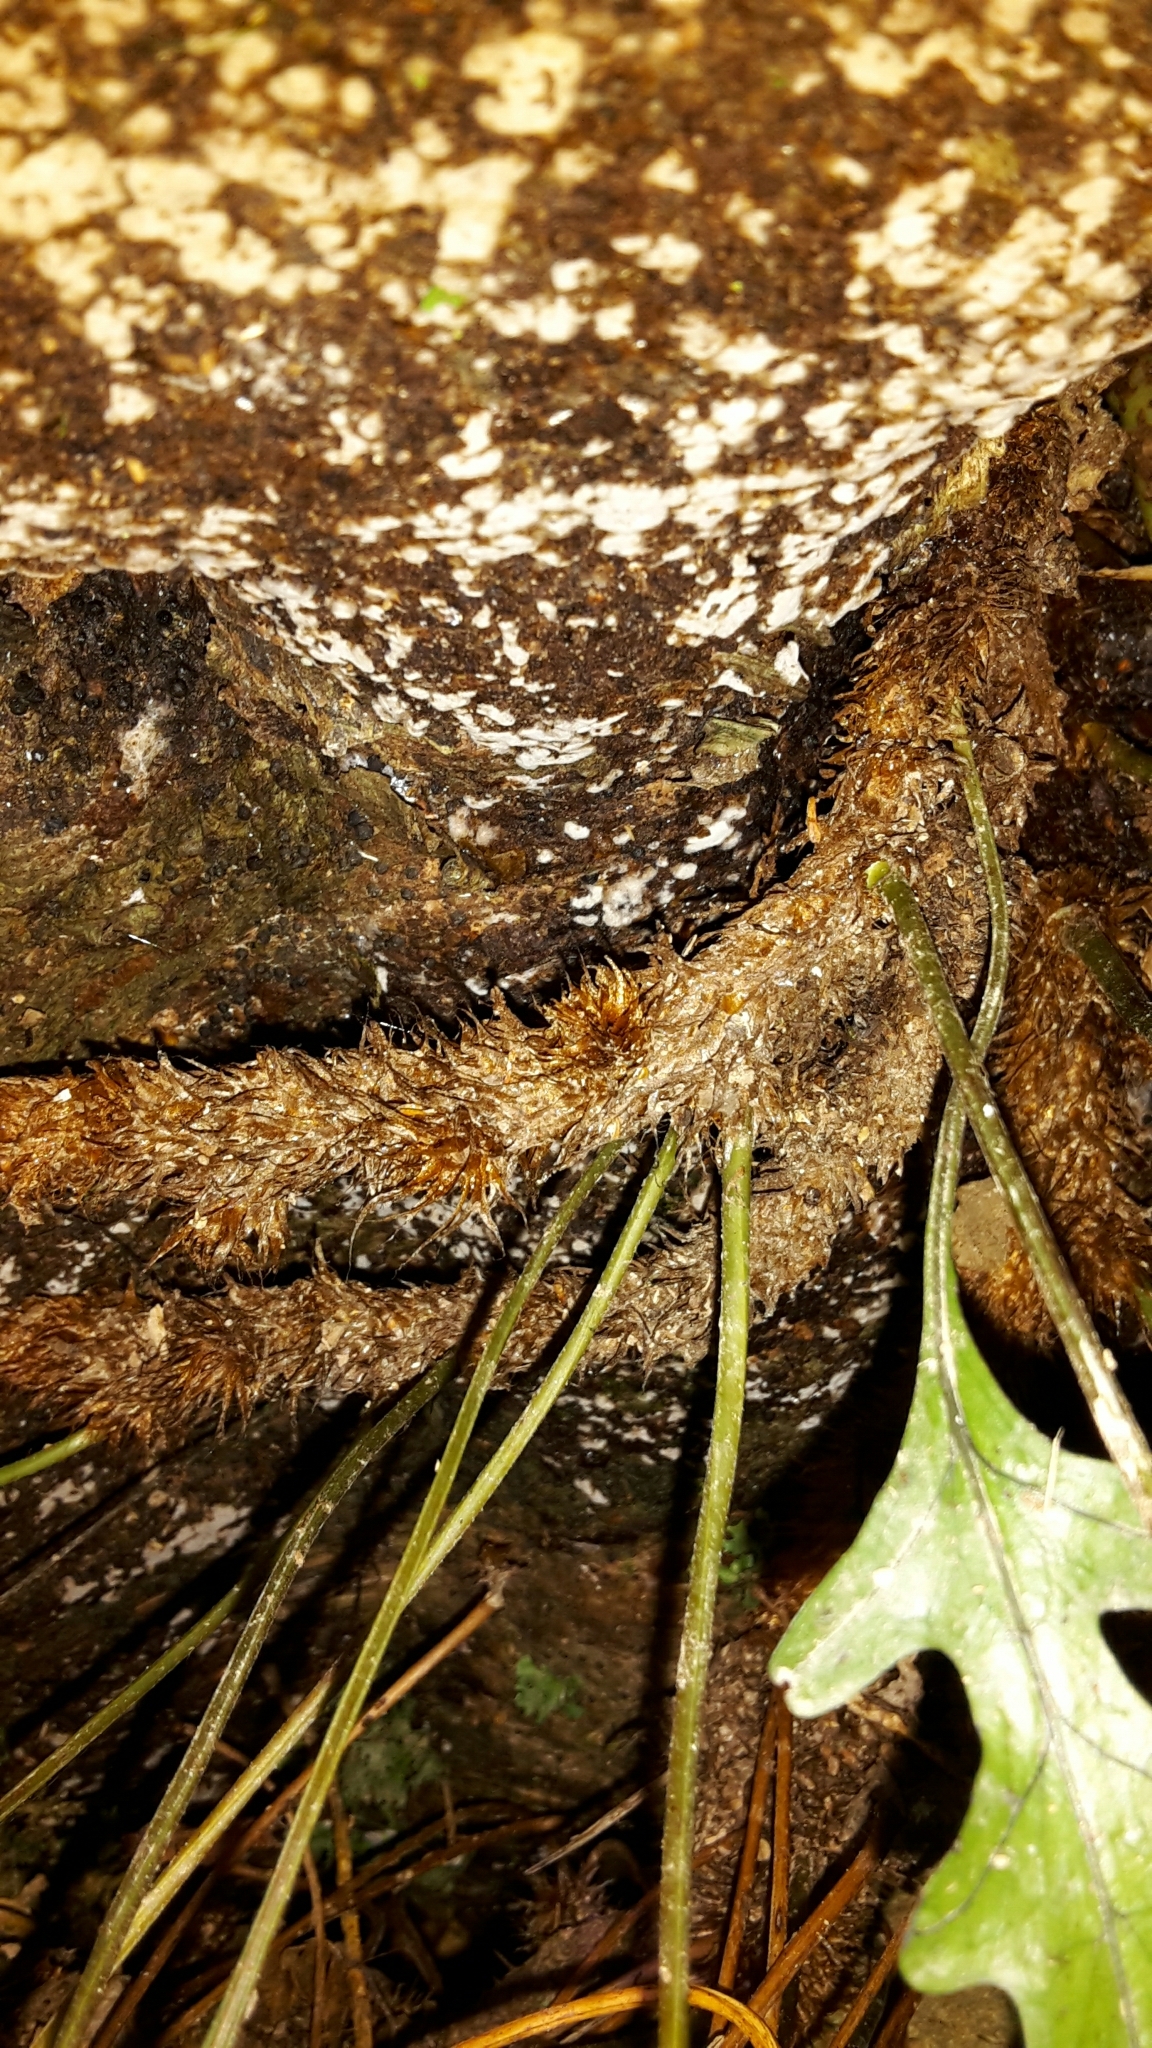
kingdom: Plantae
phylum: Tracheophyta
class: Polypodiopsida
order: Polypodiales
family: Polypodiaceae
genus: Lecanopteris
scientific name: Lecanopteris novae-zealandiae
